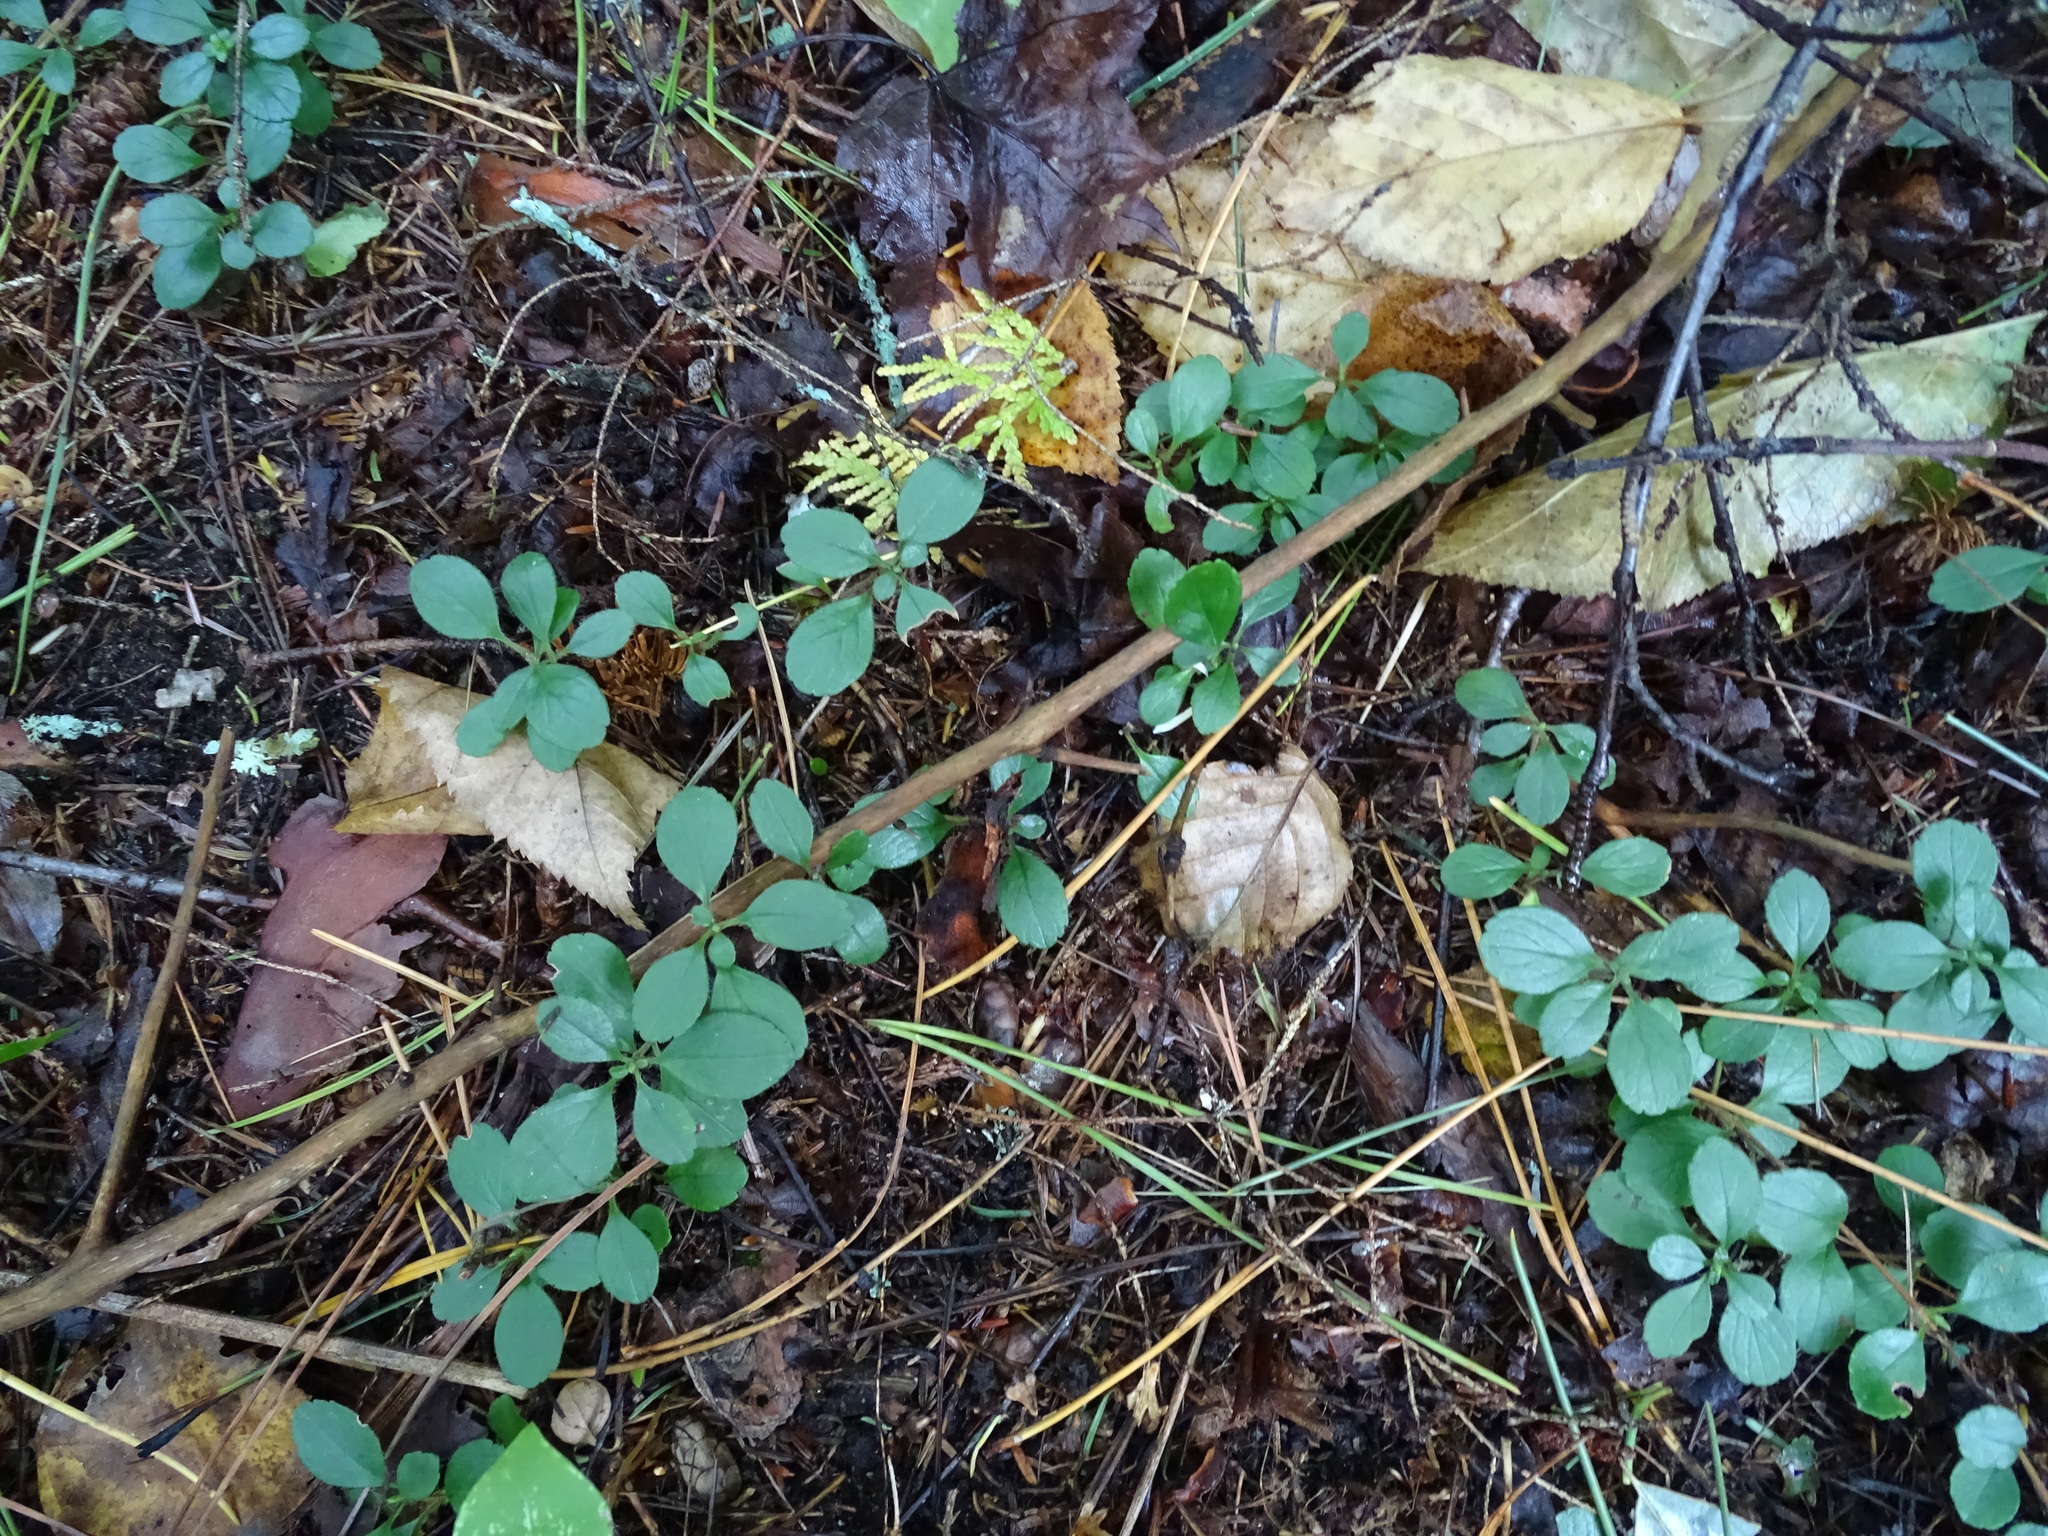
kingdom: Plantae
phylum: Tracheophyta
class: Magnoliopsida
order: Dipsacales
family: Caprifoliaceae
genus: Linnaea
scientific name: Linnaea borealis
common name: Twinflower
